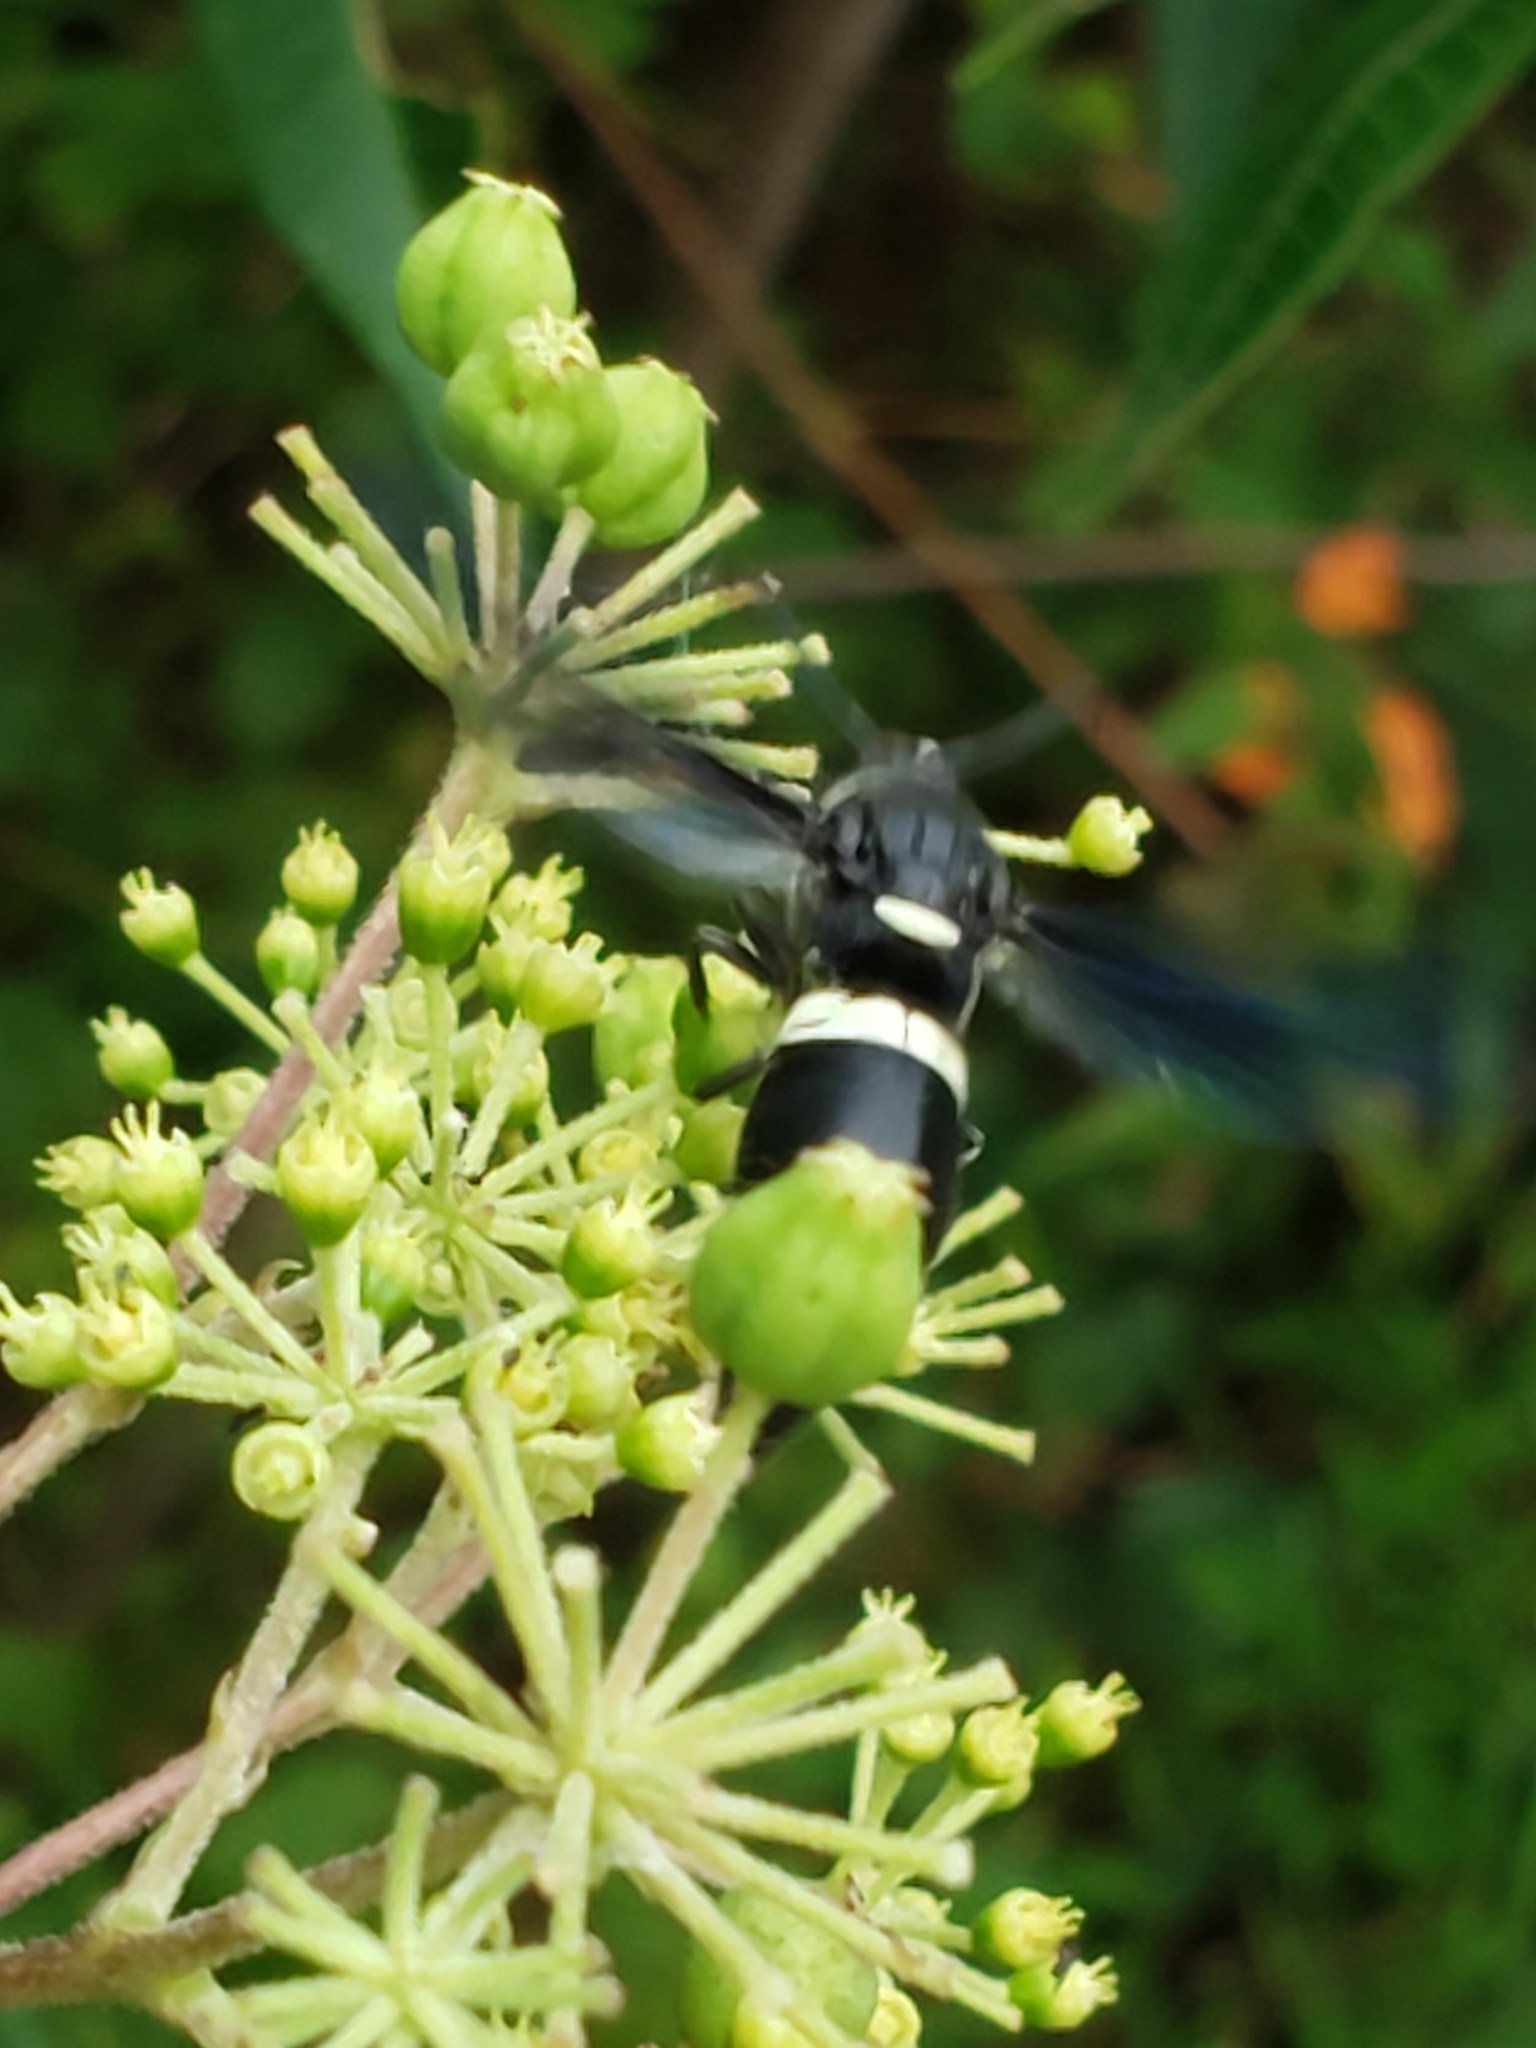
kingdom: Animalia
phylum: Arthropoda
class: Insecta
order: Hymenoptera
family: Eumenidae
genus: Monobia
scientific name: Monobia quadridens
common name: Four-toothed mason wasp
